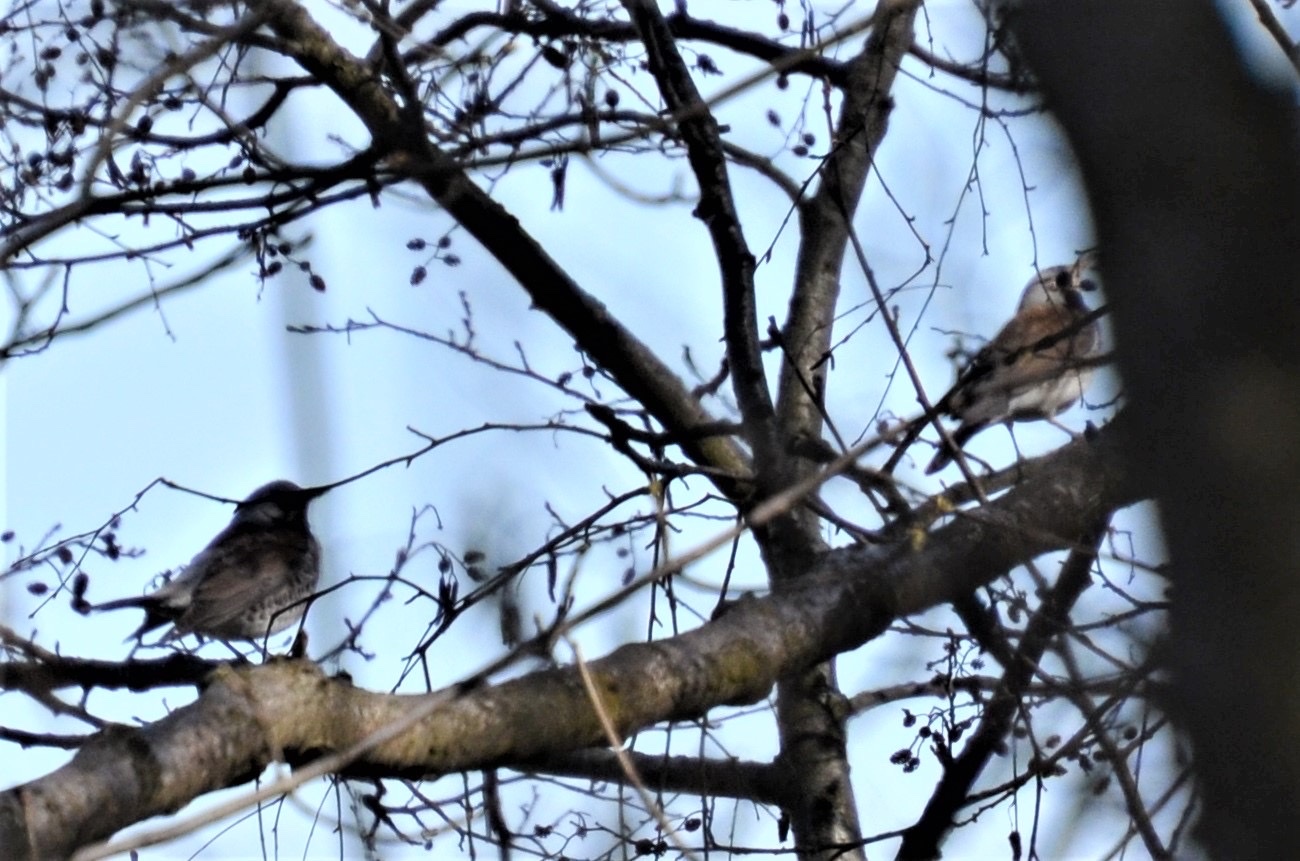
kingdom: Animalia
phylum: Chordata
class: Aves
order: Passeriformes
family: Turdidae
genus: Turdus
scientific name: Turdus viscivorus
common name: Mistle thrush
